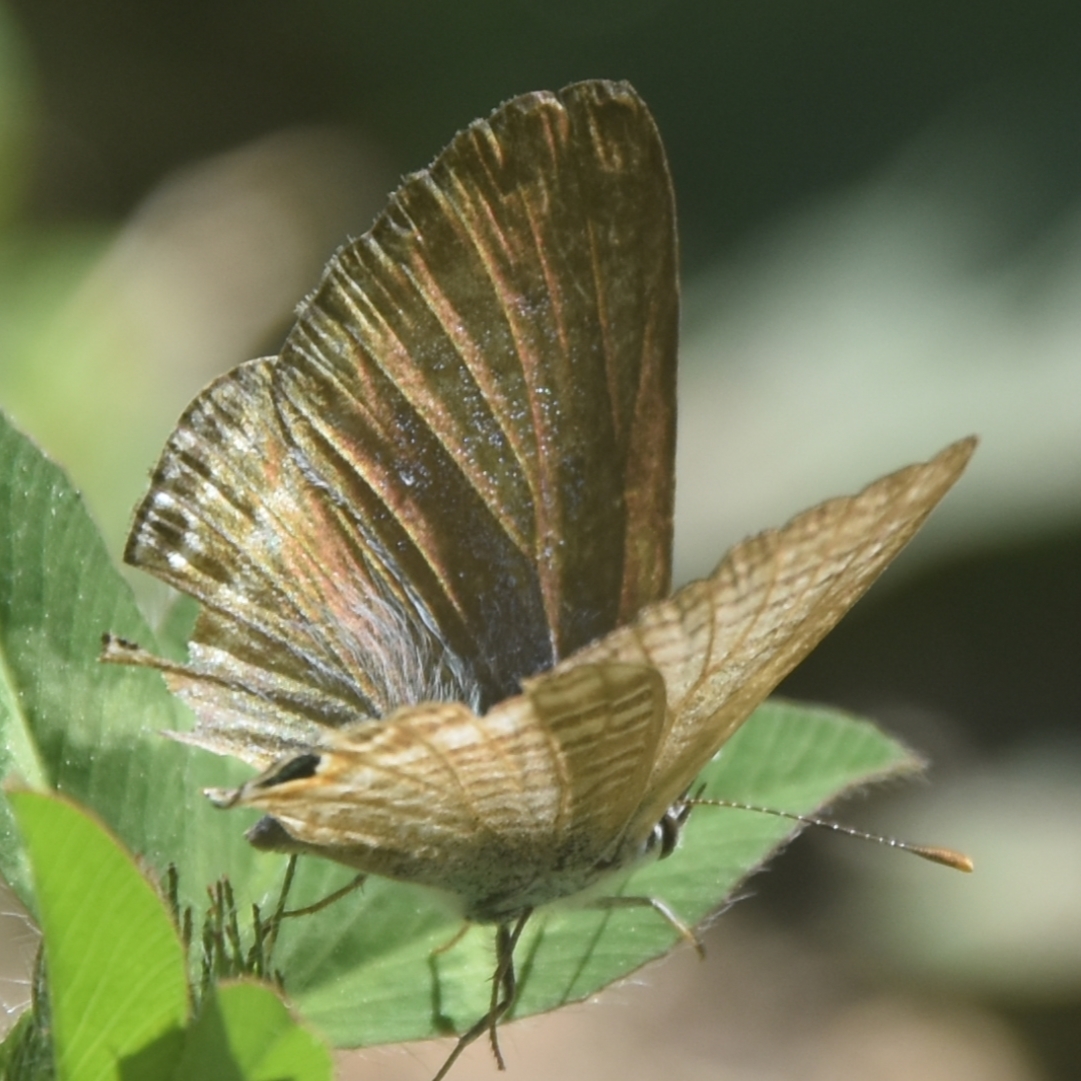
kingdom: Animalia
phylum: Arthropoda
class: Insecta
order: Lepidoptera
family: Lycaenidae
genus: Lampides
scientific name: Lampides boeticus
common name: Long-tailed blue
